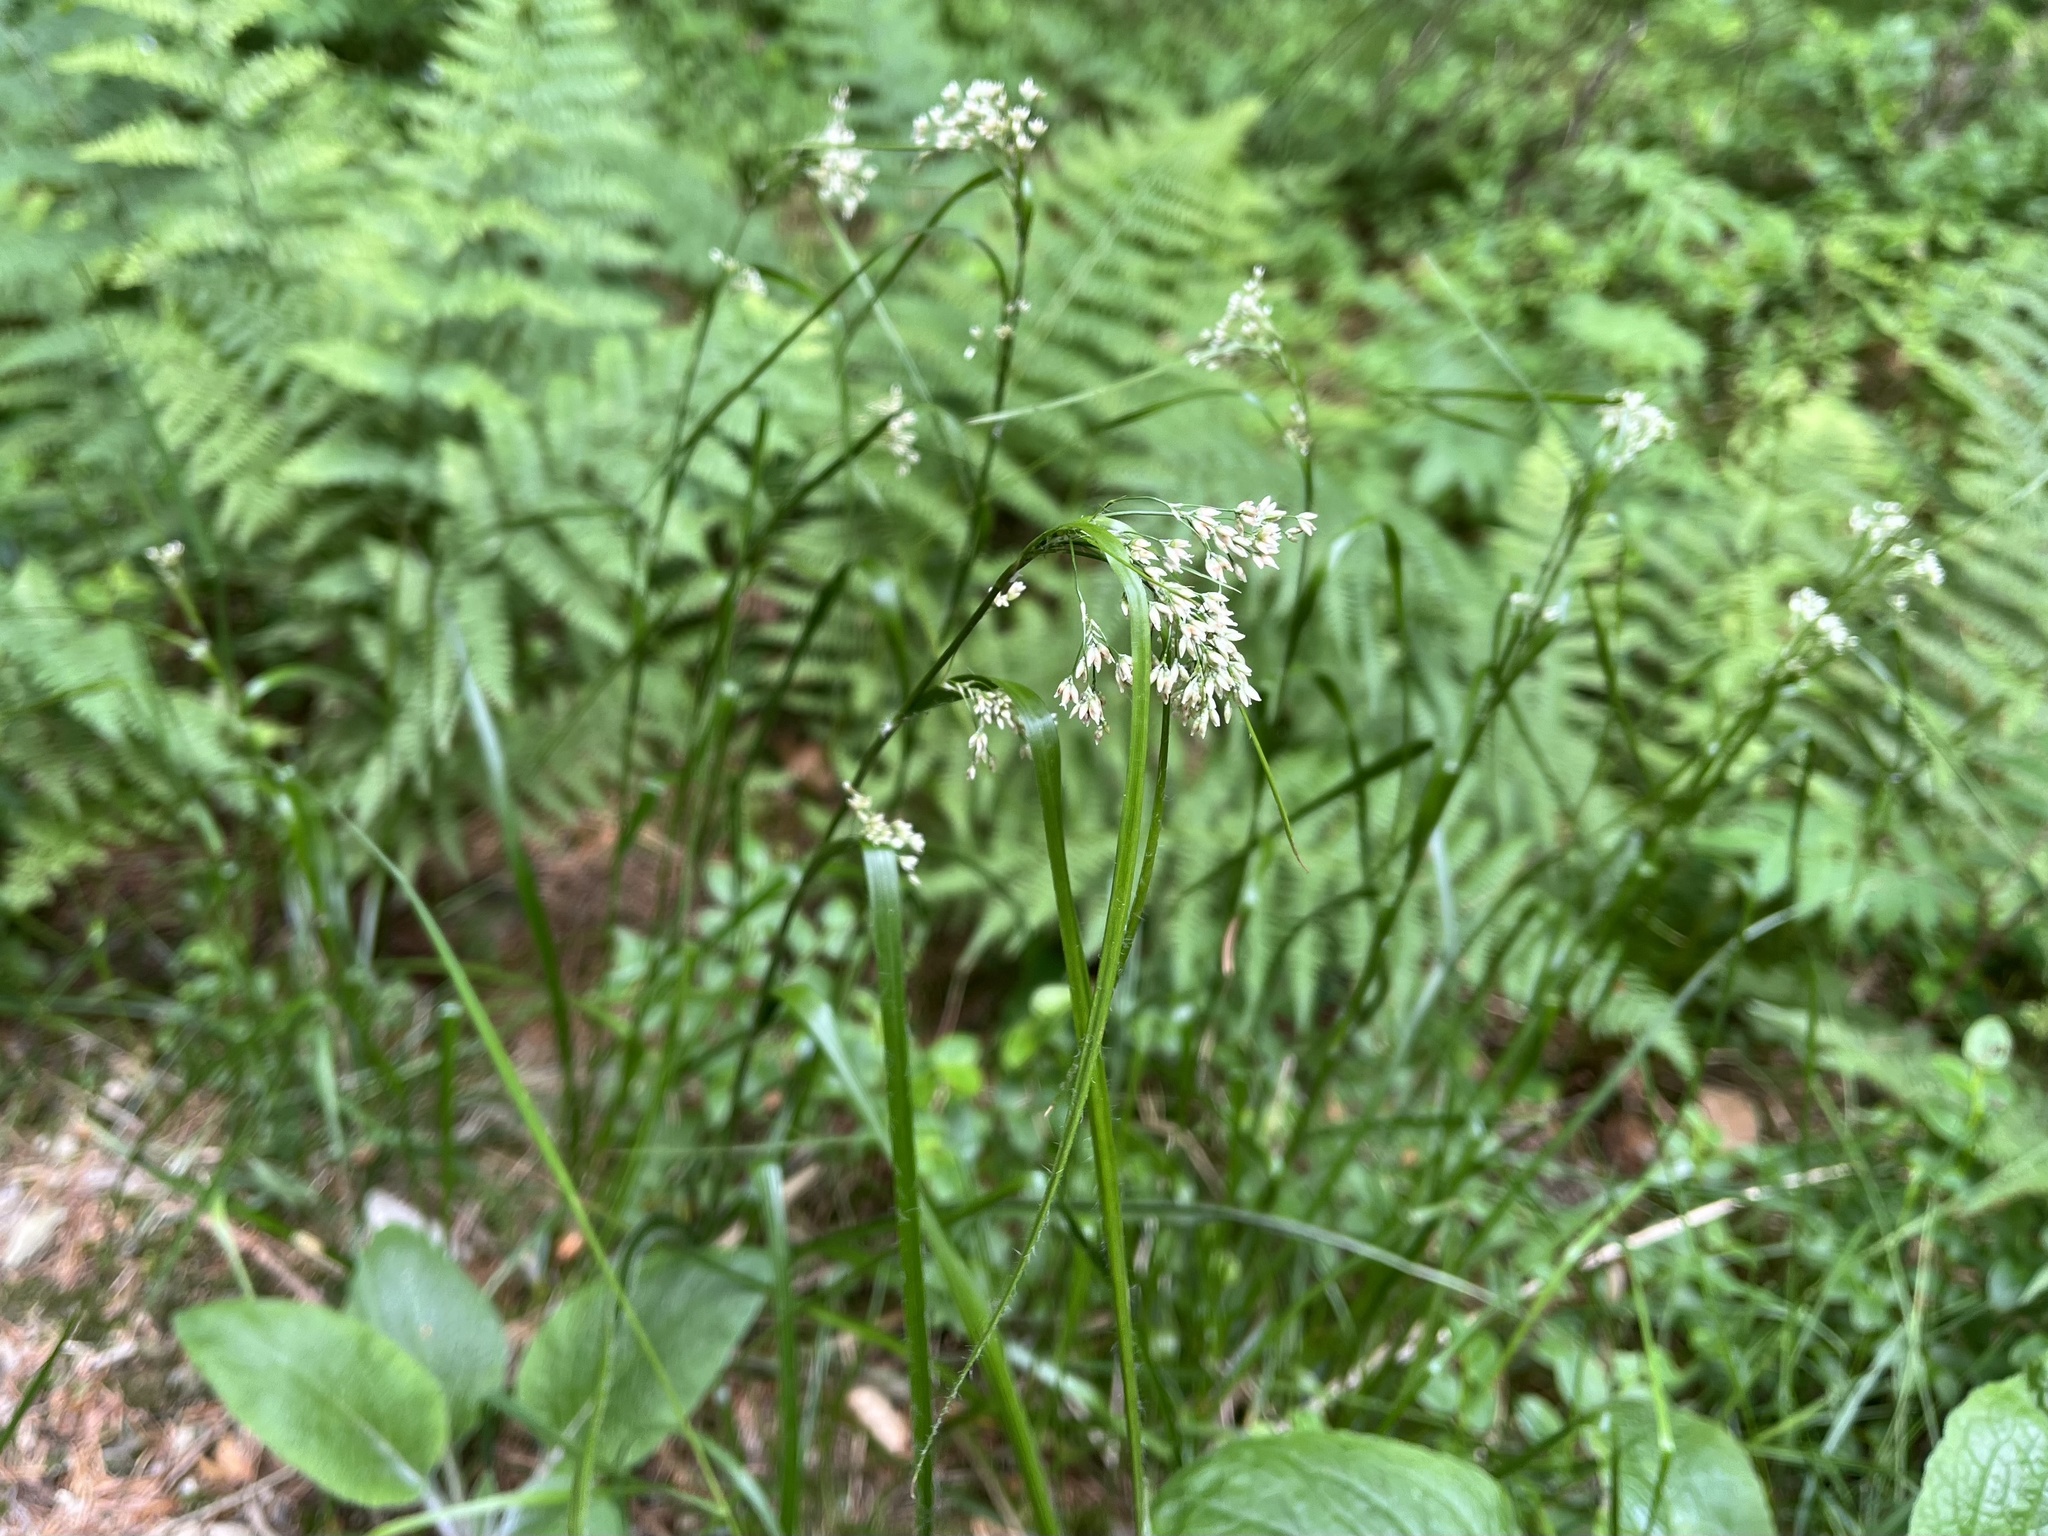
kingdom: Plantae
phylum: Tracheophyta
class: Liliopsida
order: Poales
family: Juncaceae
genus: Luzula
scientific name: Luzula luzuloides
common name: White wood-rush
